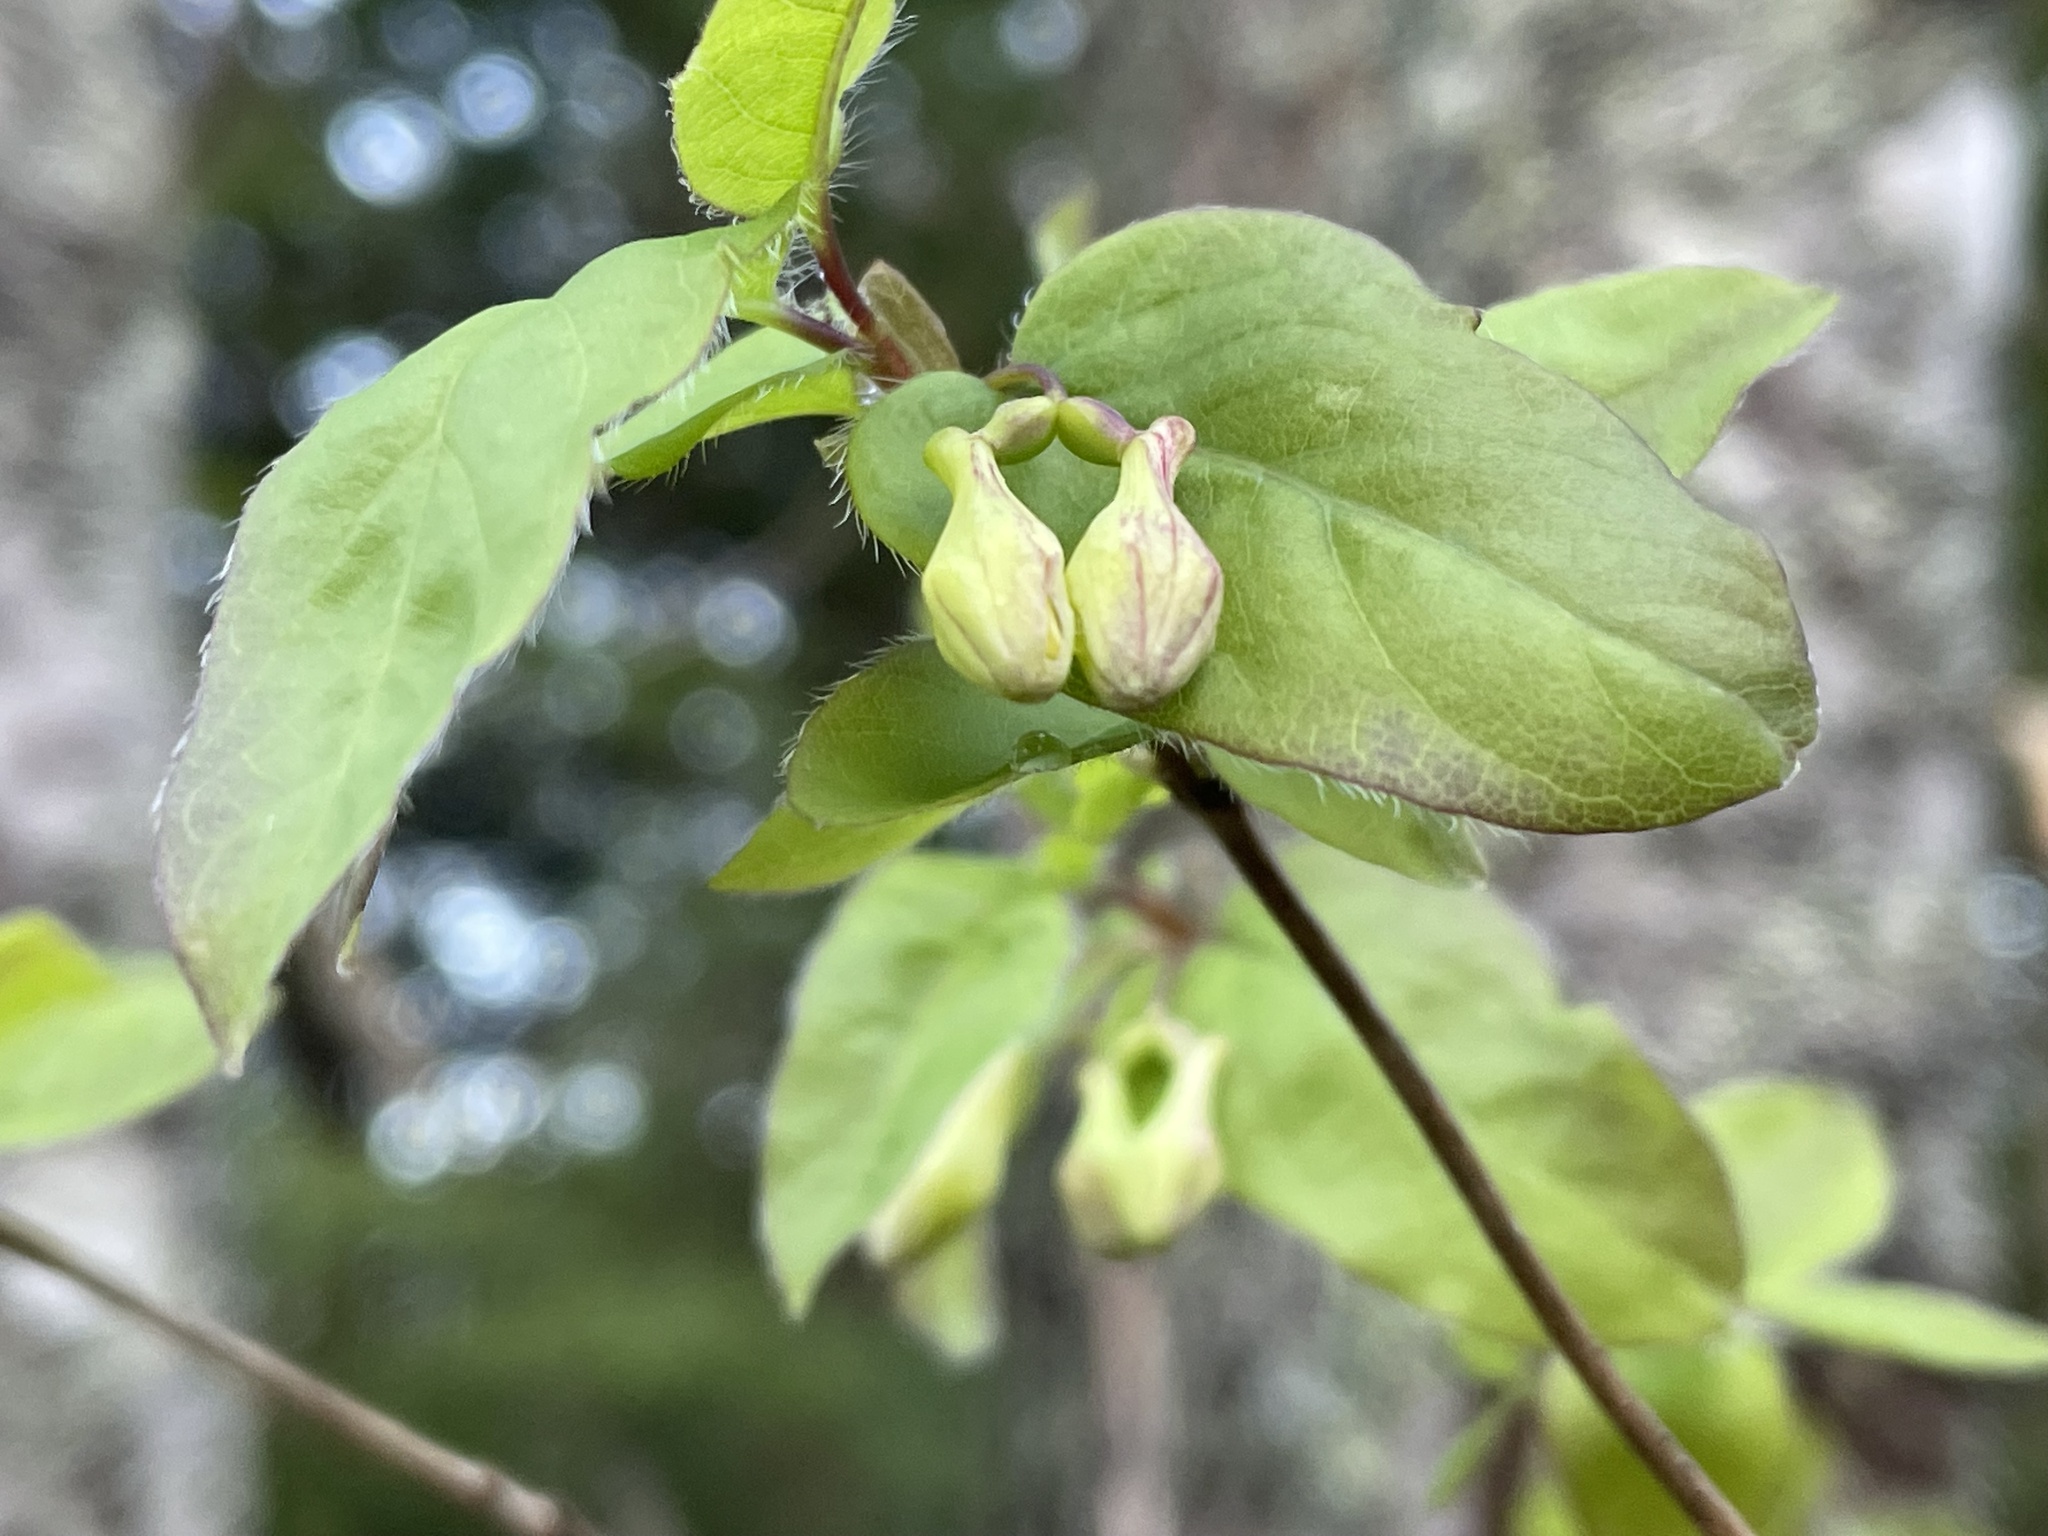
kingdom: Plantae
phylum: Tracheophyta
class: Magnoliopsida
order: Dipsacales
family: Caprifoliaceae
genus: Lonicera
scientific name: Lonicera canadensis
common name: American fly-honeysuckle
